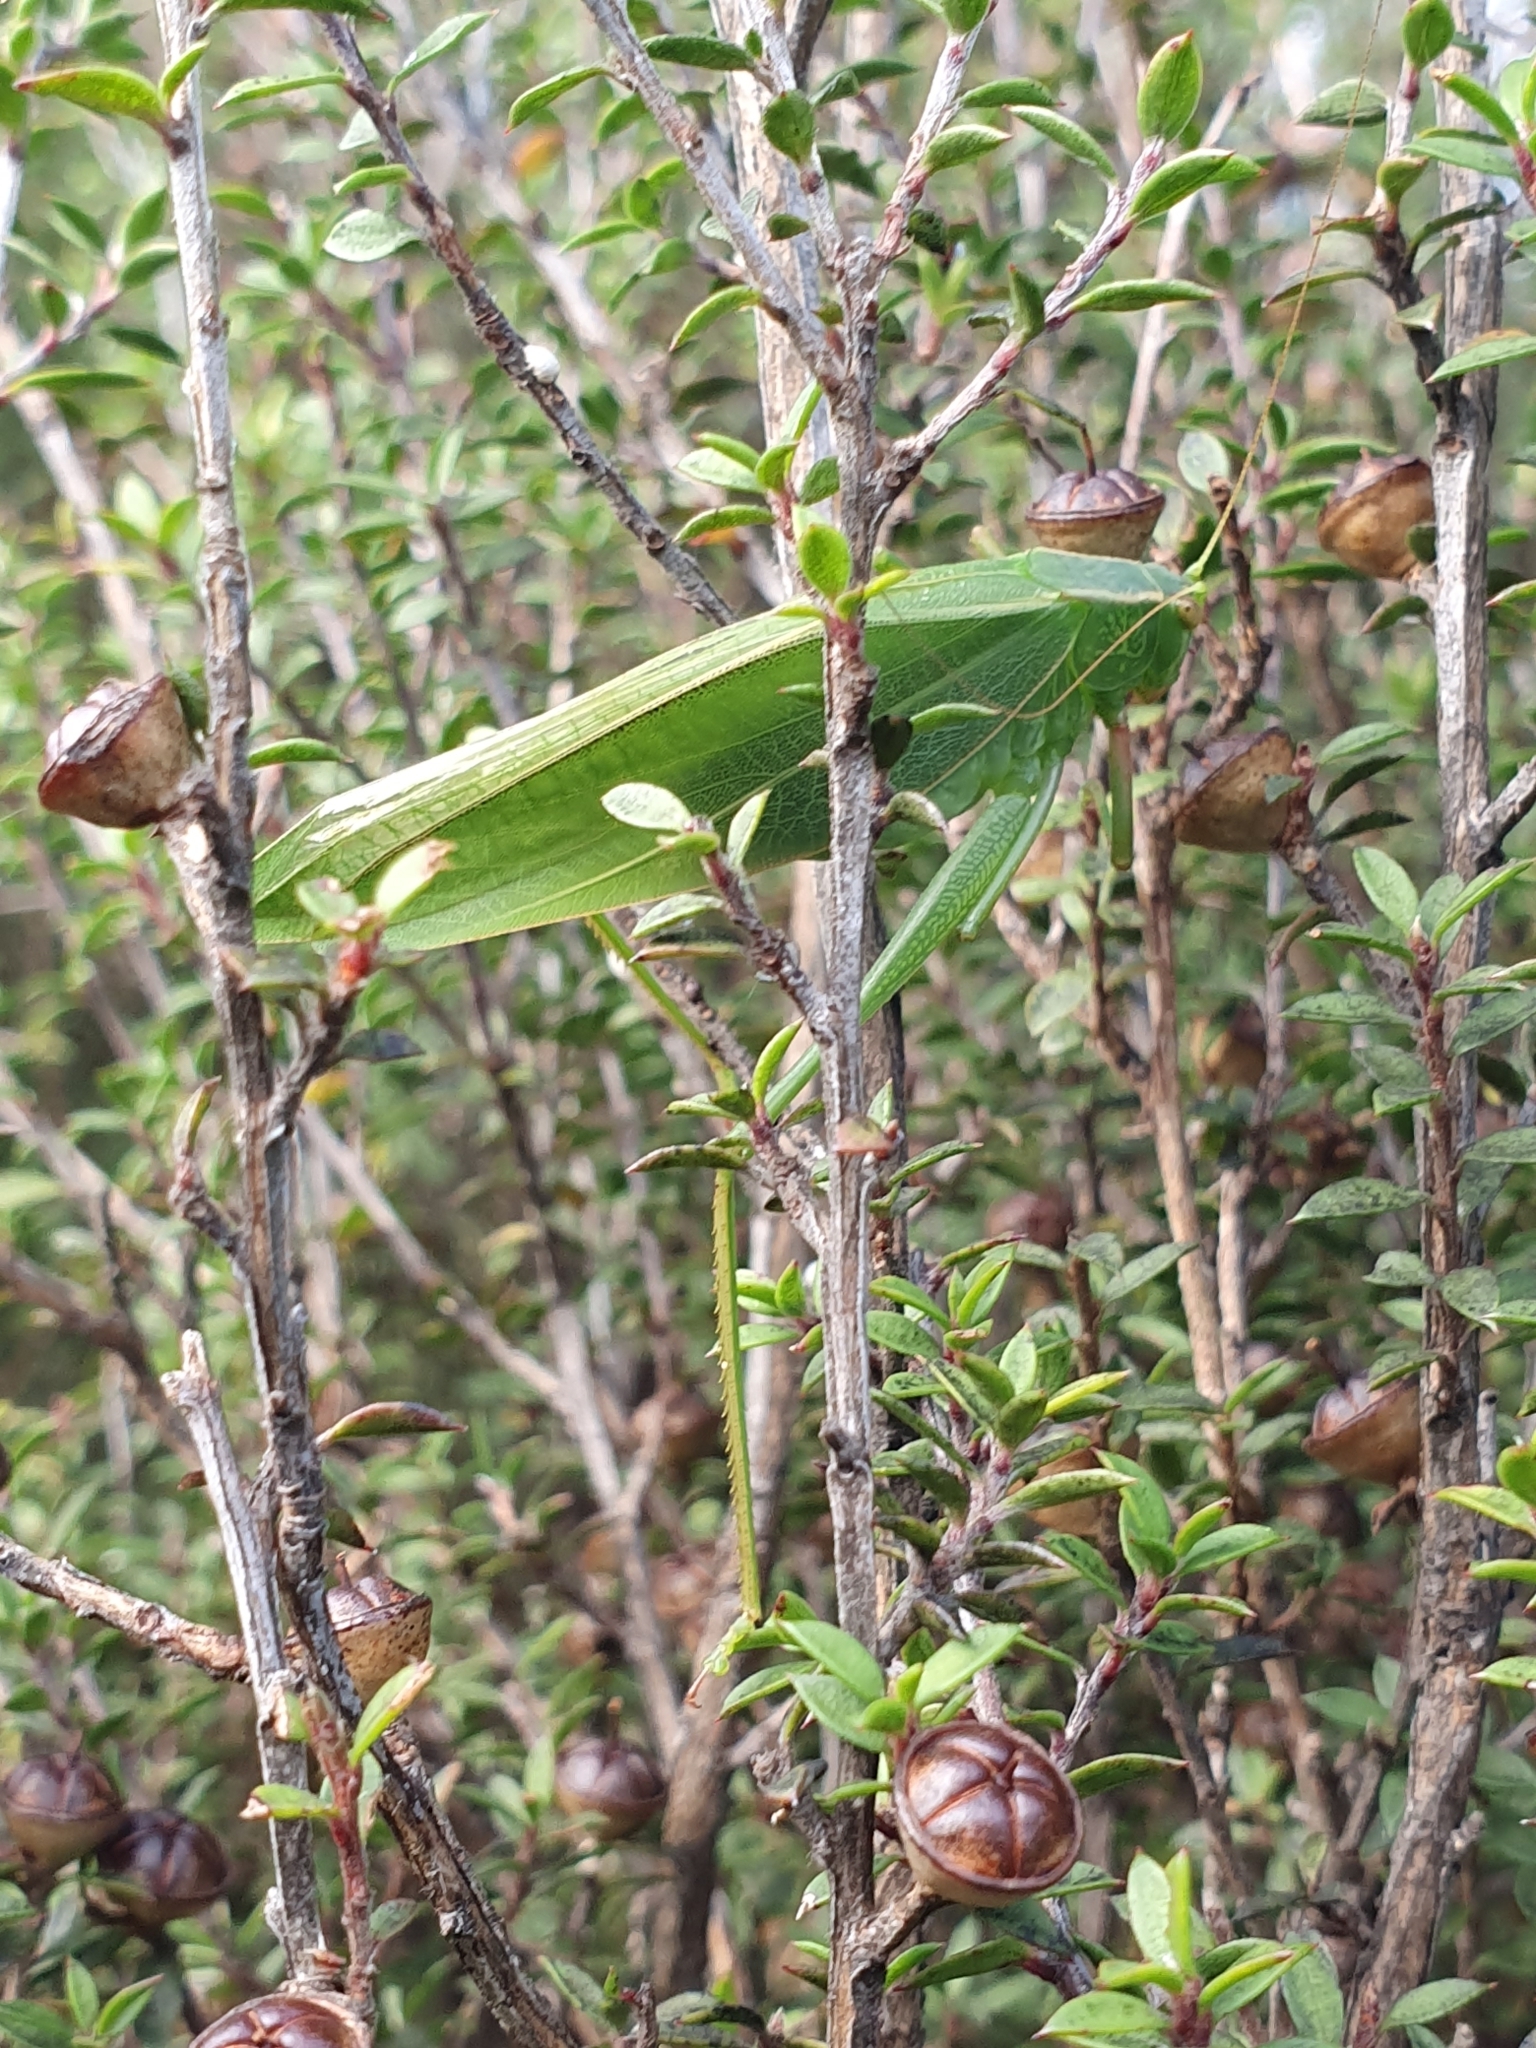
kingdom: Animalia
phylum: Arthropoda
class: Insecta
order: Orthoptera
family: Tettigoniidae
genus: Caedicia
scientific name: Caedicia simplex
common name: Common garden katydid
